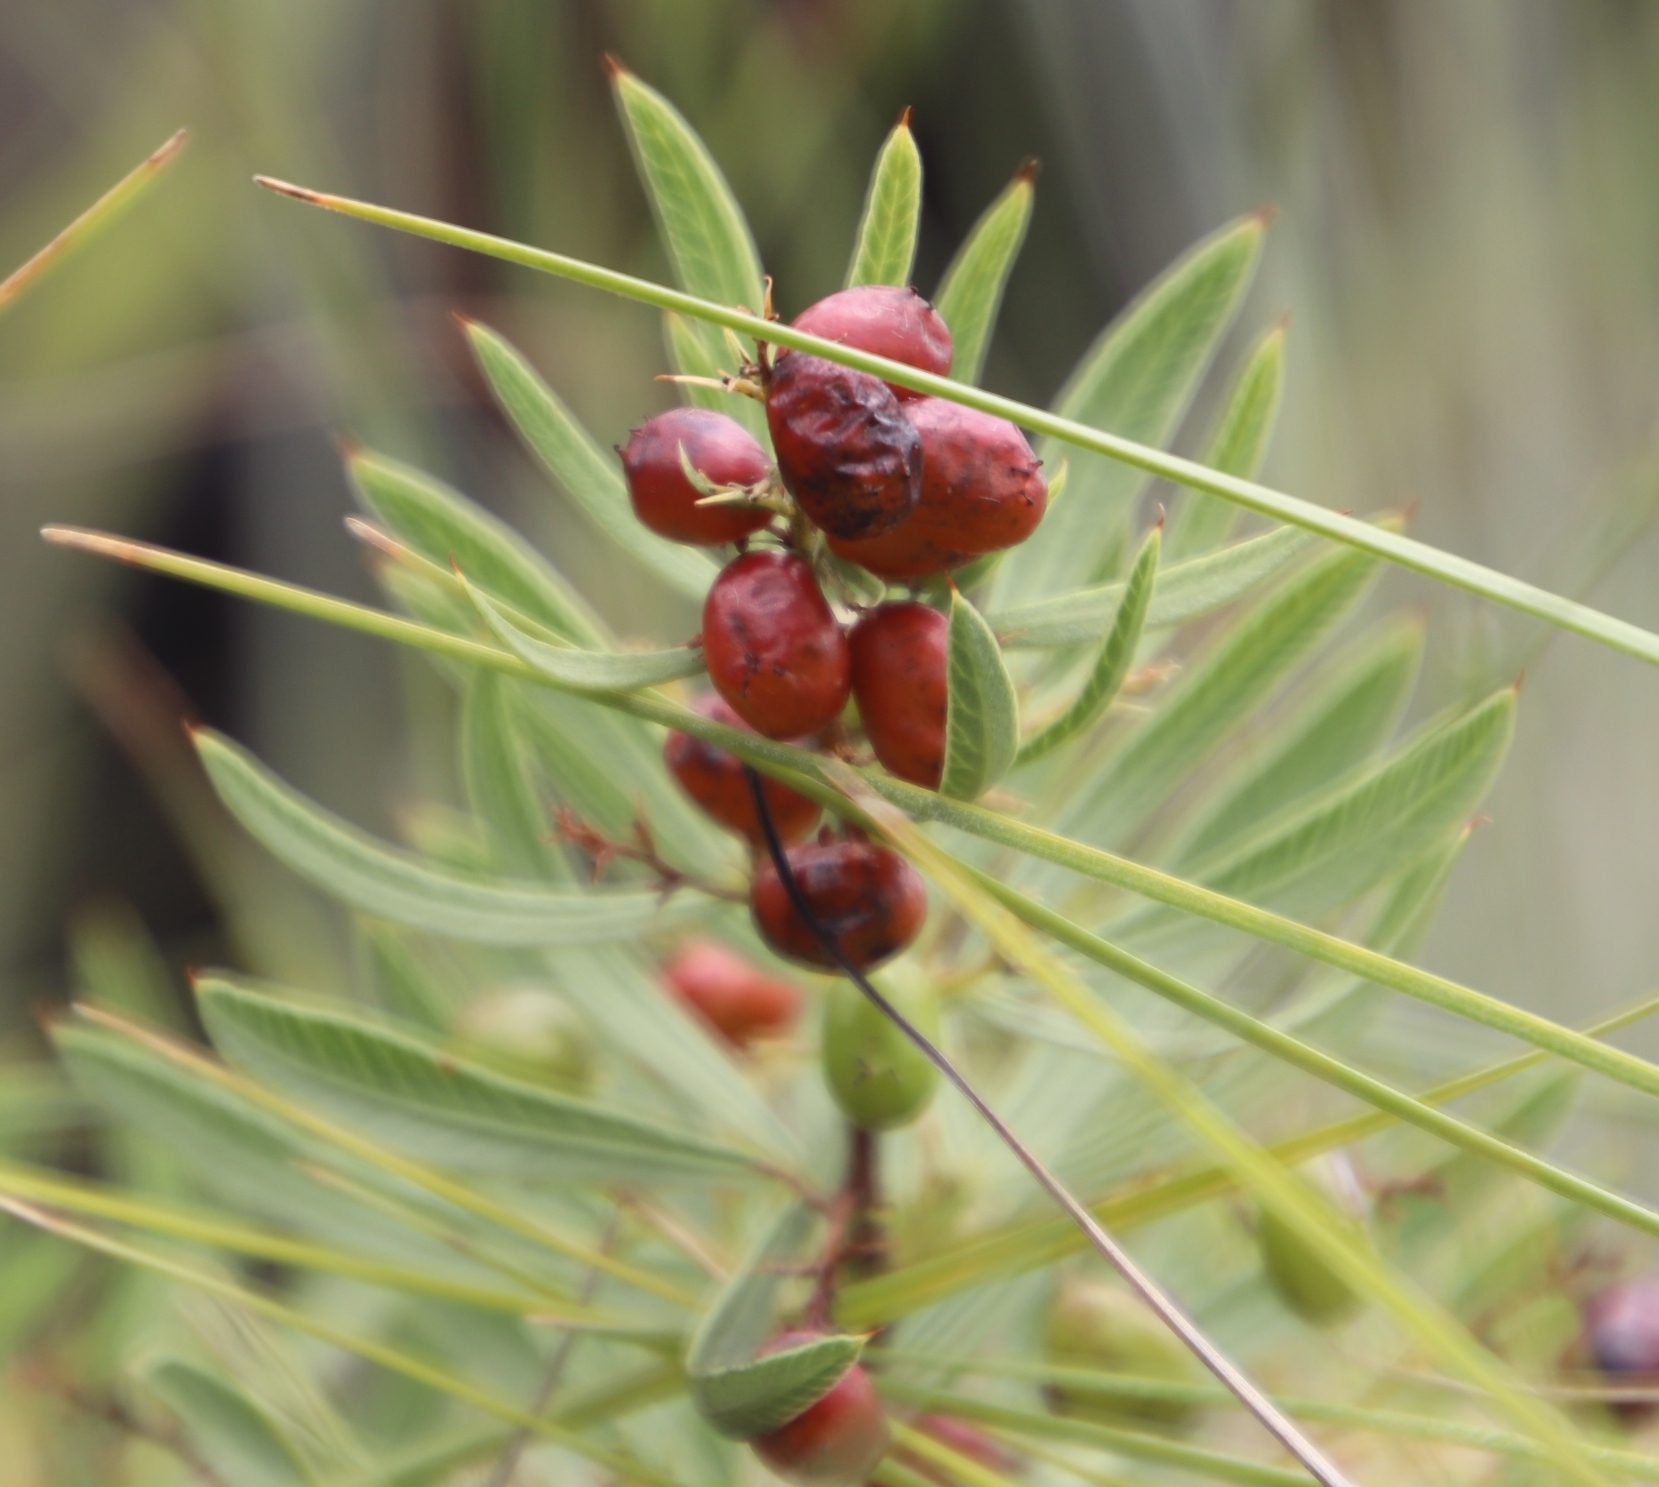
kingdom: Plantae
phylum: Tracheophyta
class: Magnoliopsida
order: Sapindales
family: Anacardiaceae
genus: Searsia
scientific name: Searsia pondoensis
